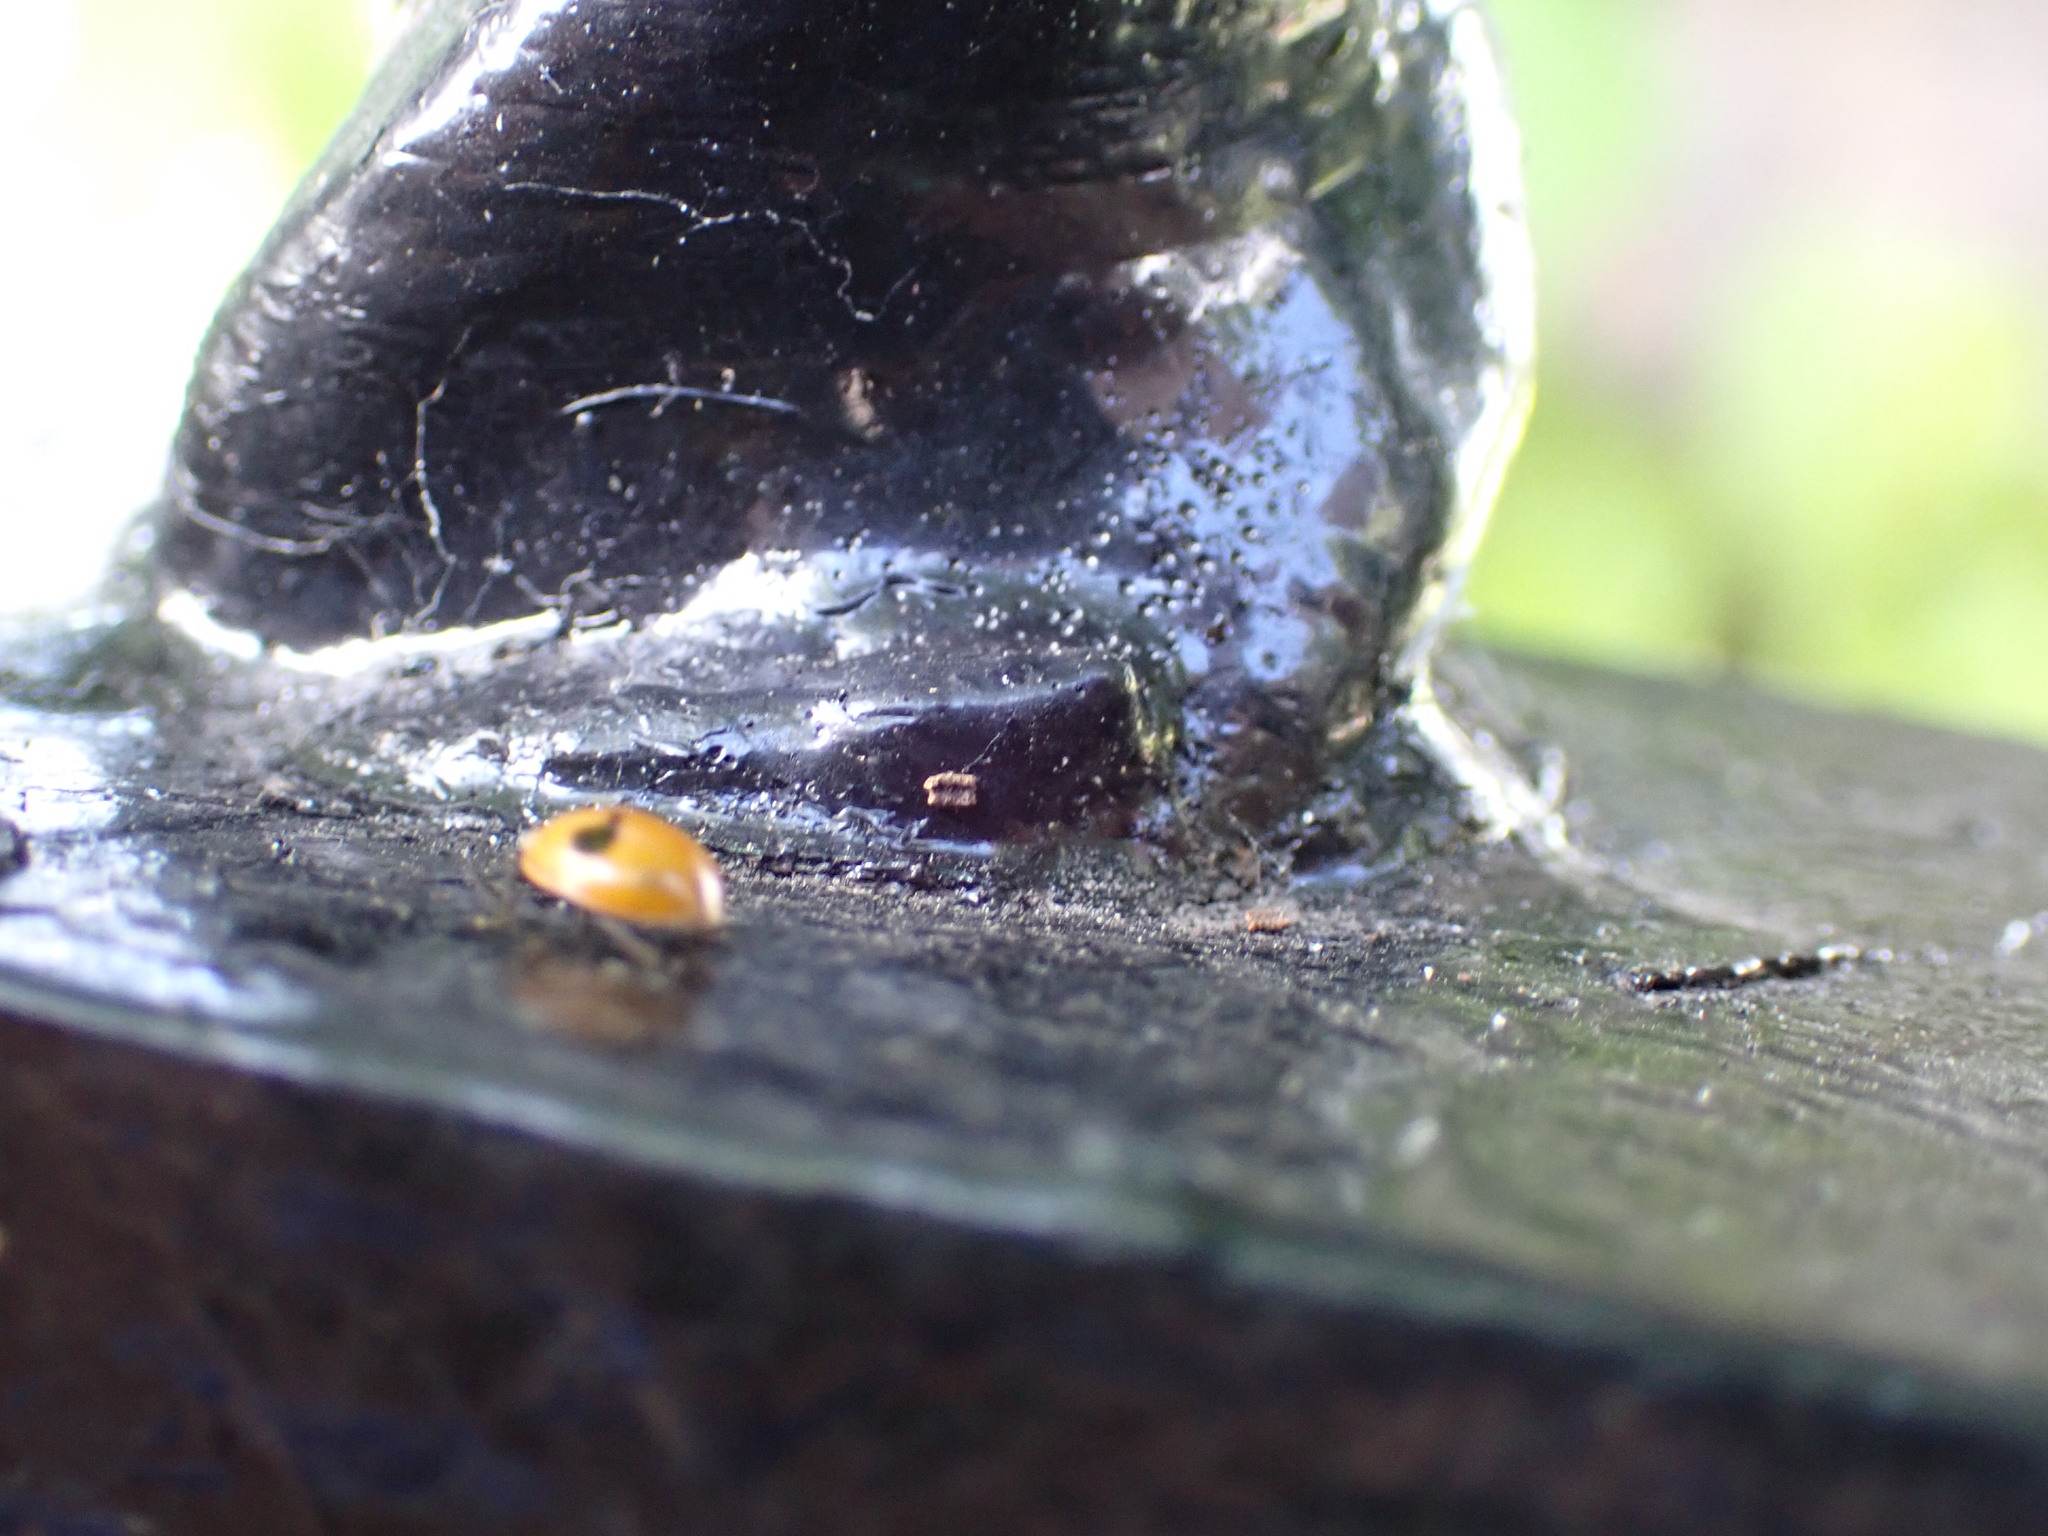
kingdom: Animalia
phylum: Arthropoda
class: Insecta
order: Coleoptera
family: Coccinellidae
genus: Adalia
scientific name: Adalia bipunctata
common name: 2-spot ladybird
